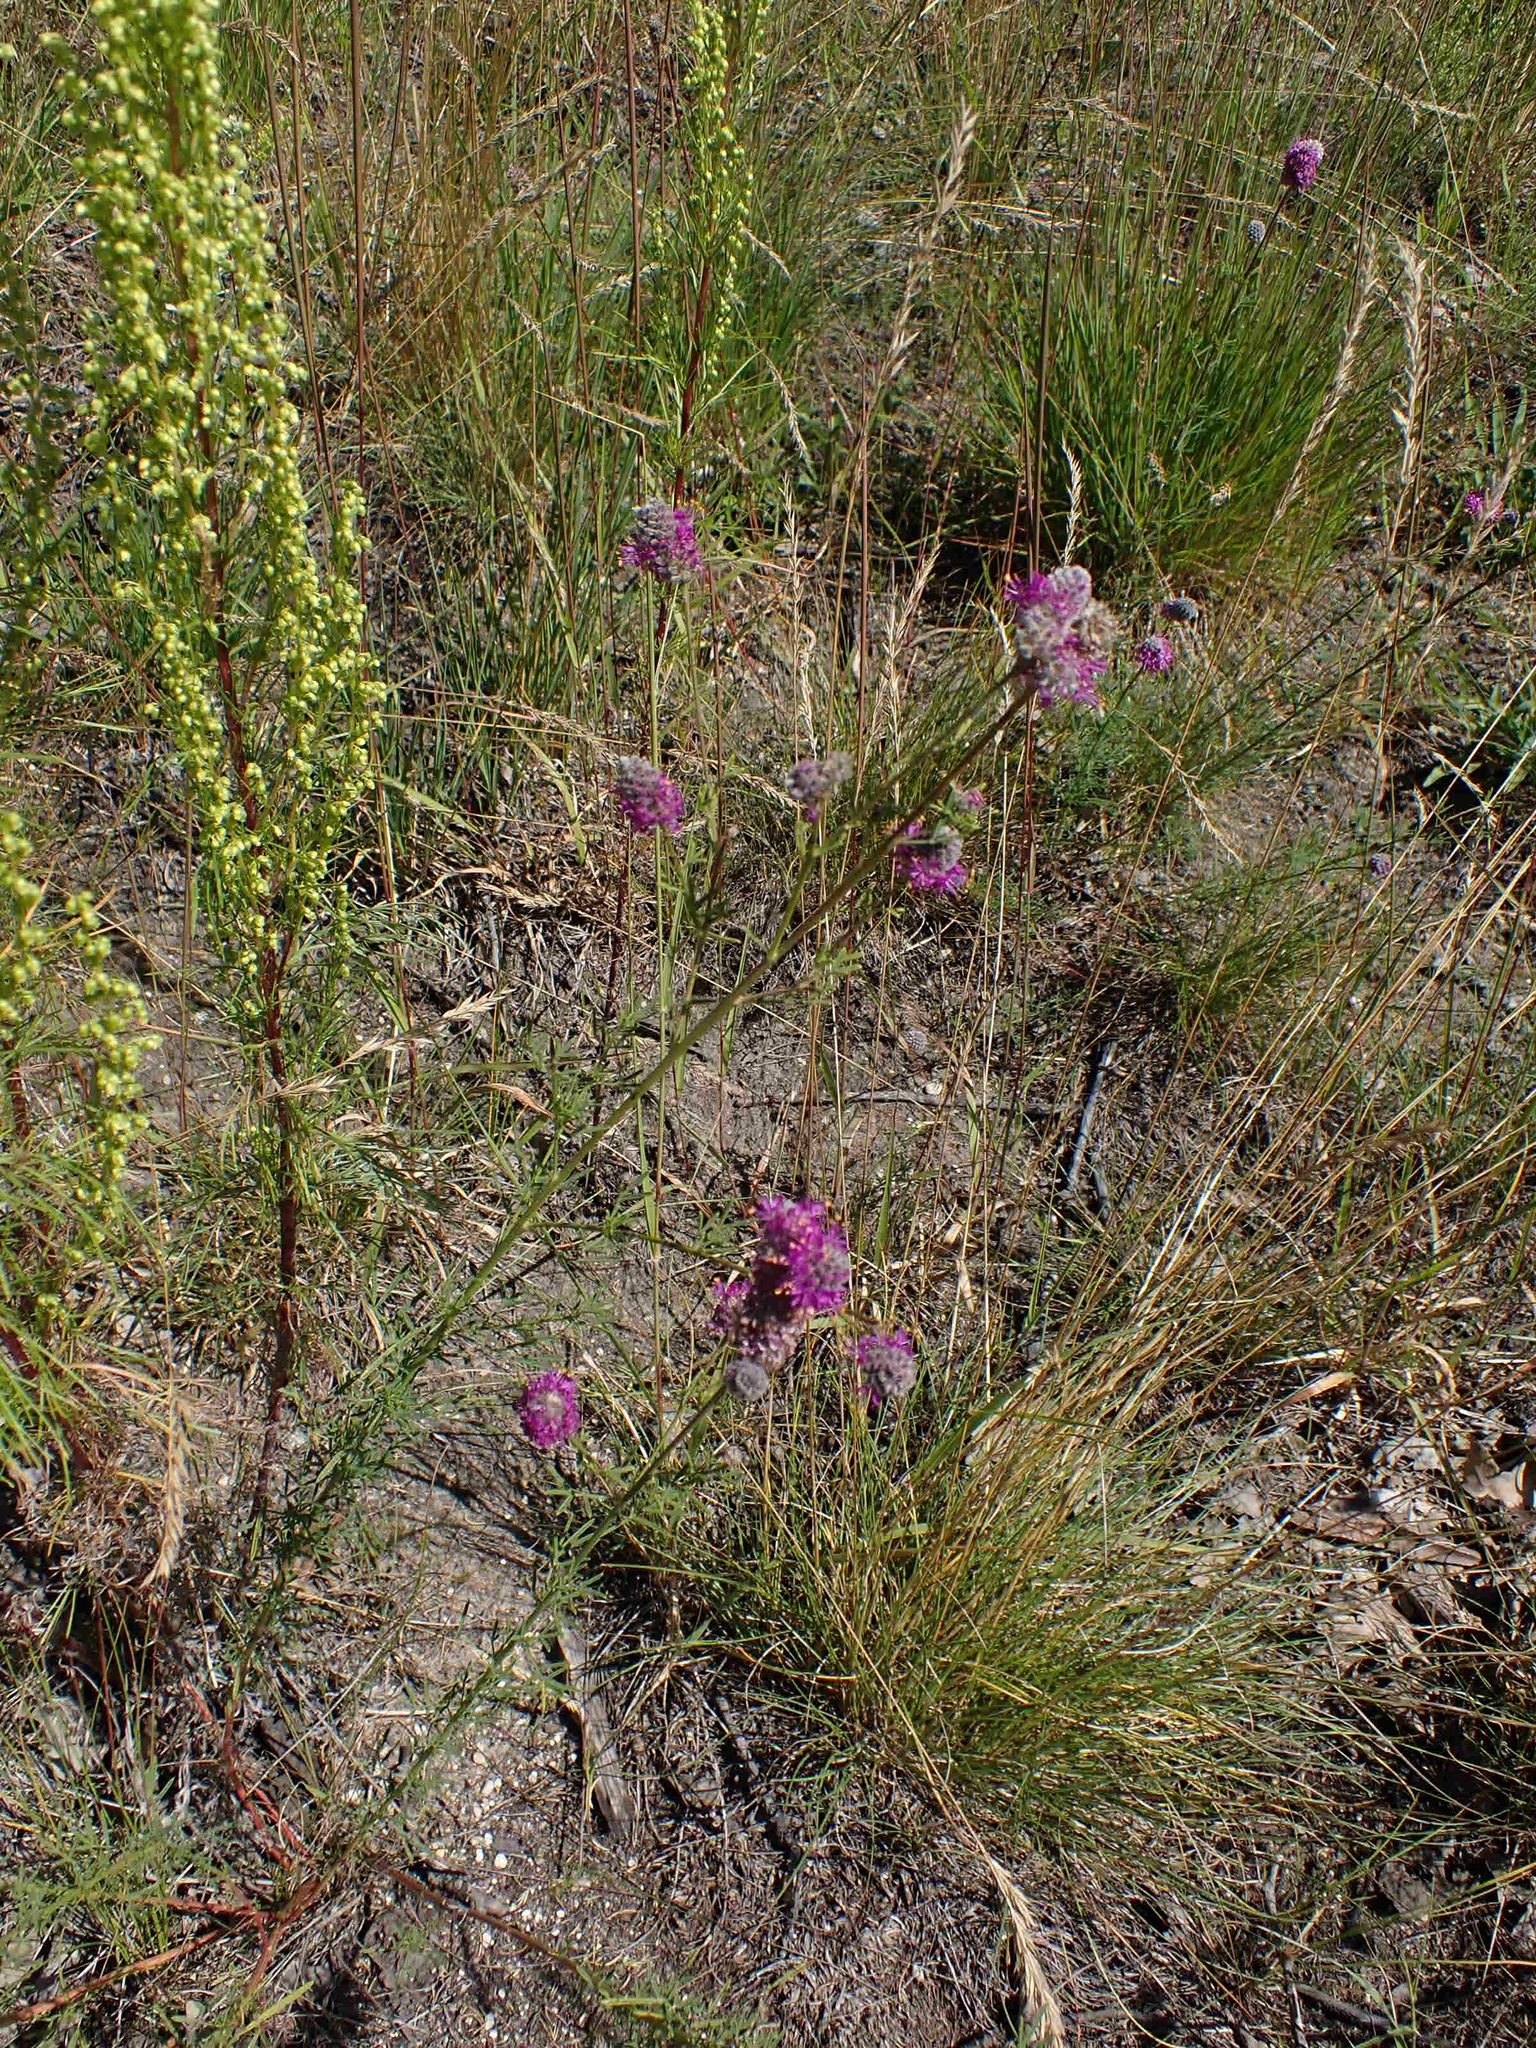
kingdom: Plantae
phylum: Tracheophyta
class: Magnoliopsida
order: Fabales
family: Fabaceae
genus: Dalea
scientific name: Dalea purpurea
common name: Purple prairie-clover
